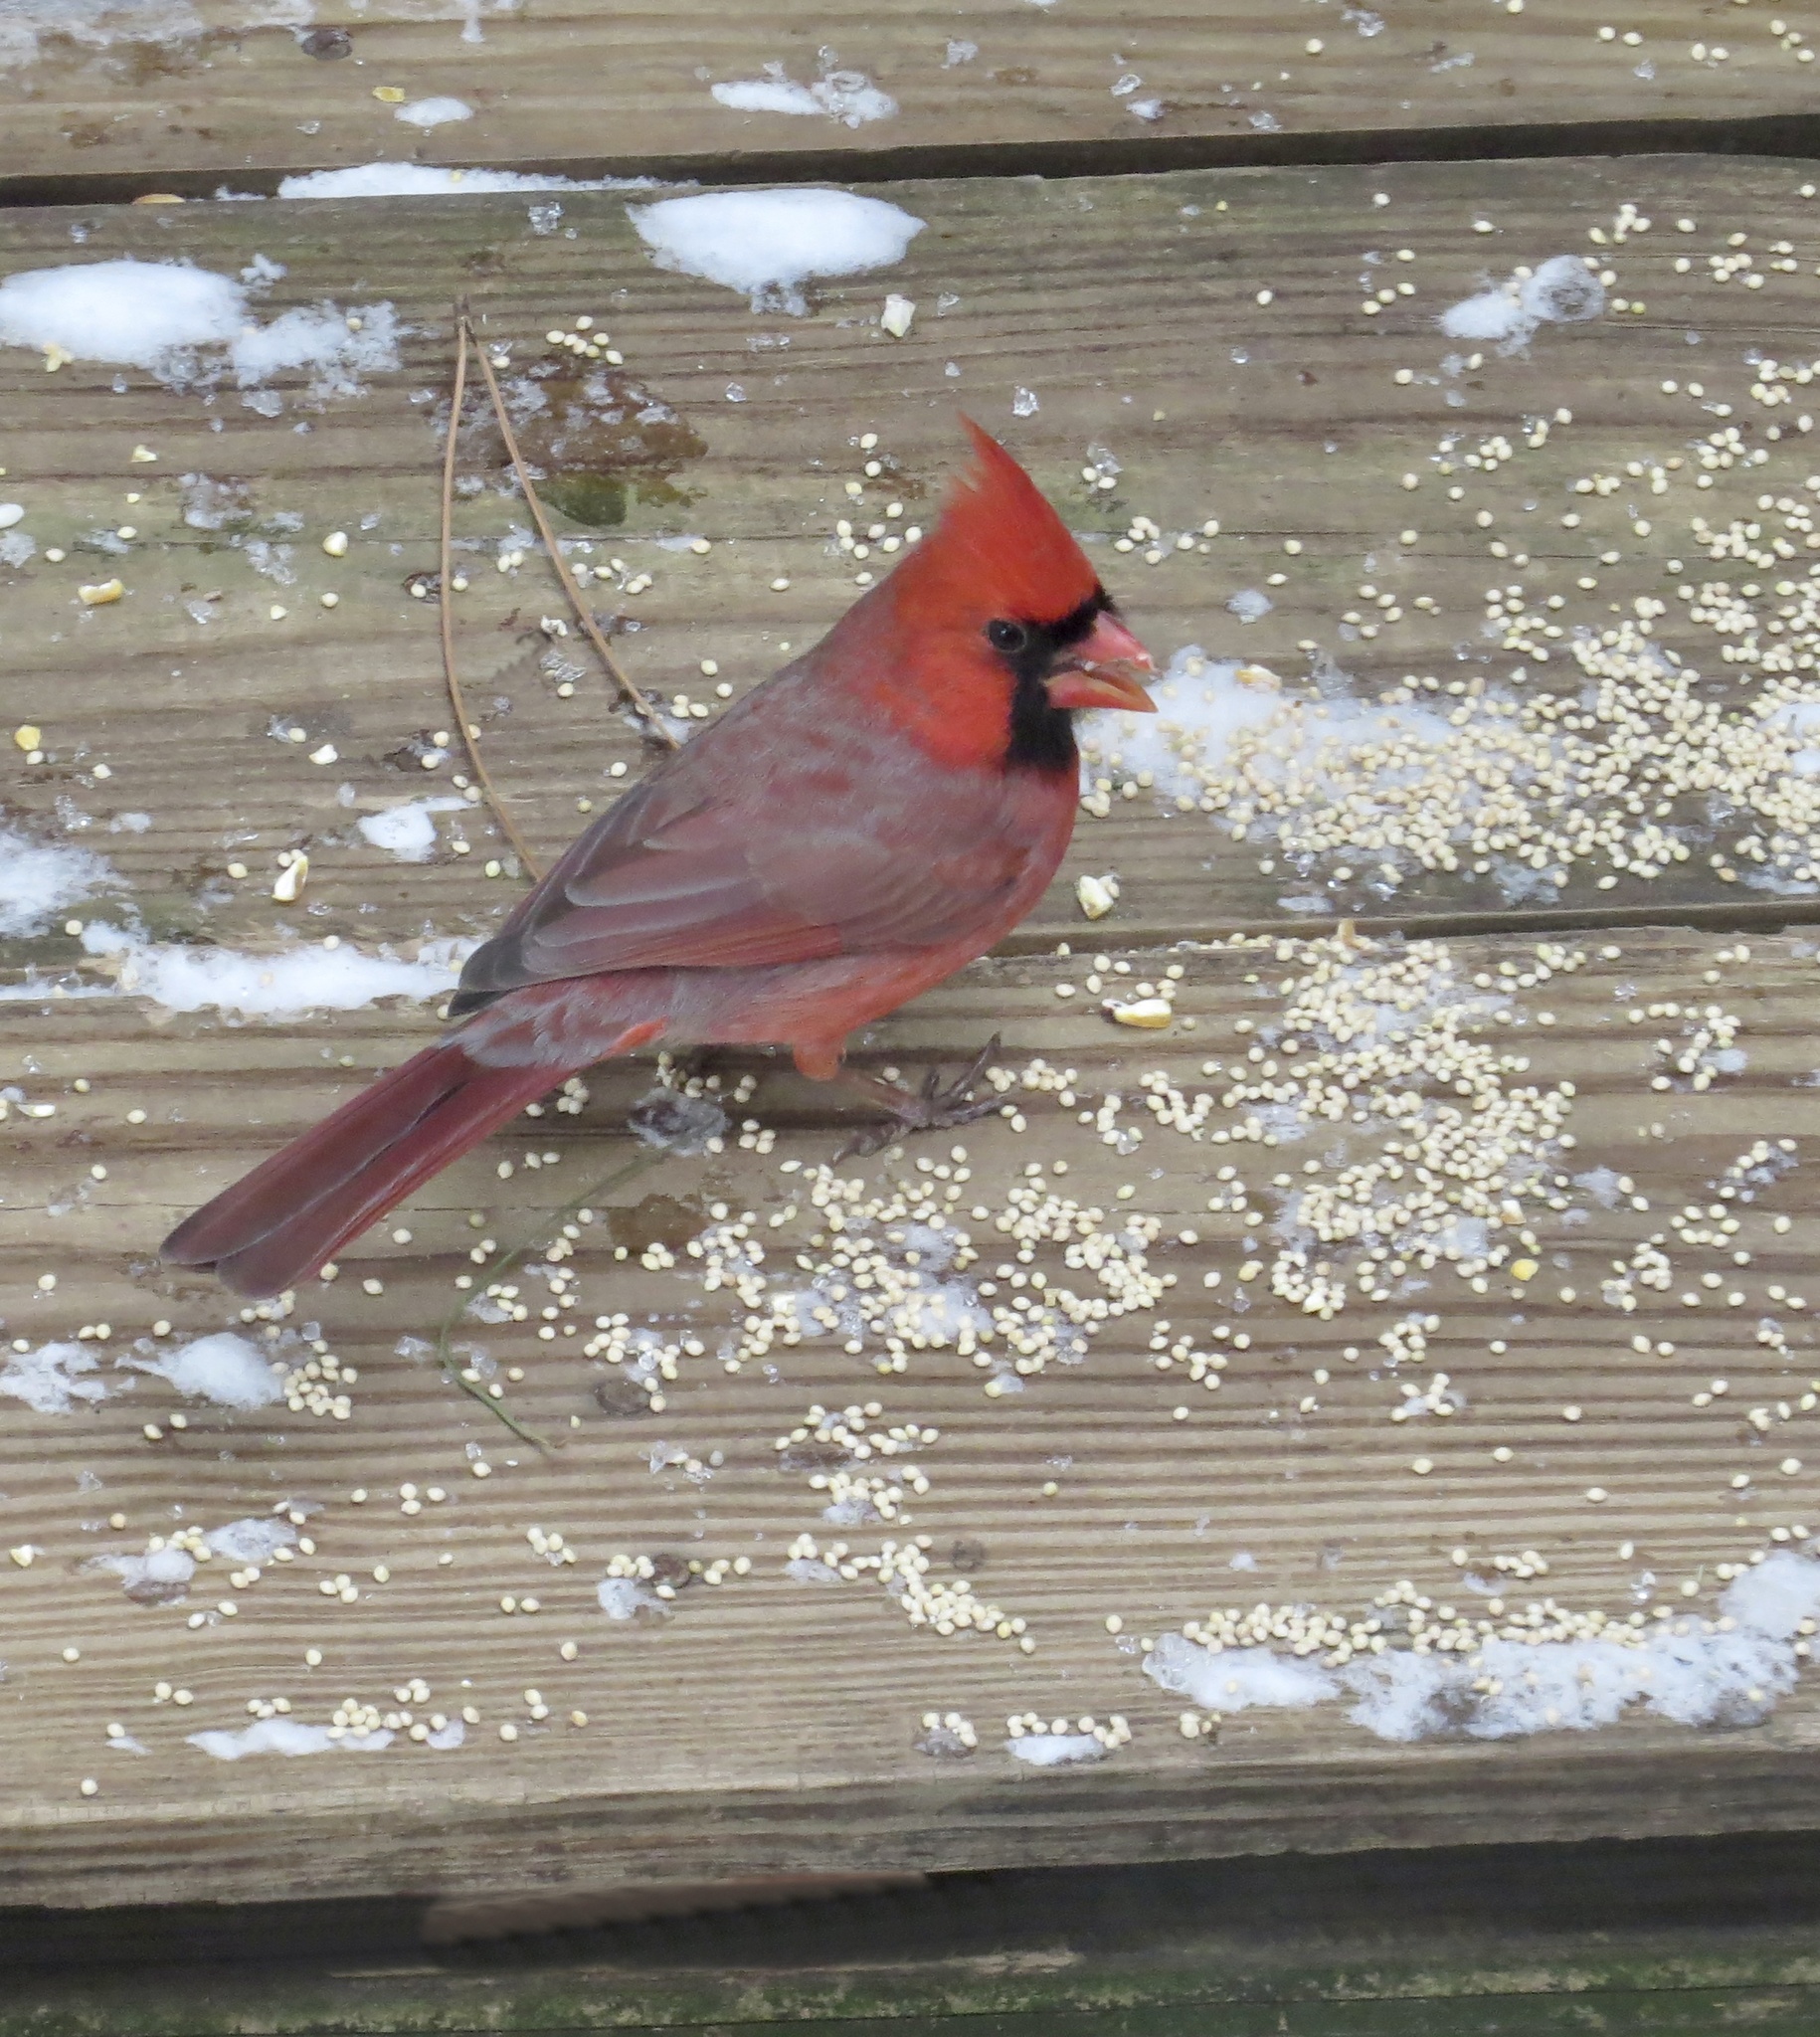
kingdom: Animalia
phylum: Chordata
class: Aves
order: Passeriformes
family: Cardinalidae
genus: Cardinalis
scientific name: Cardinalis cardinalis
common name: Northern cardinal
